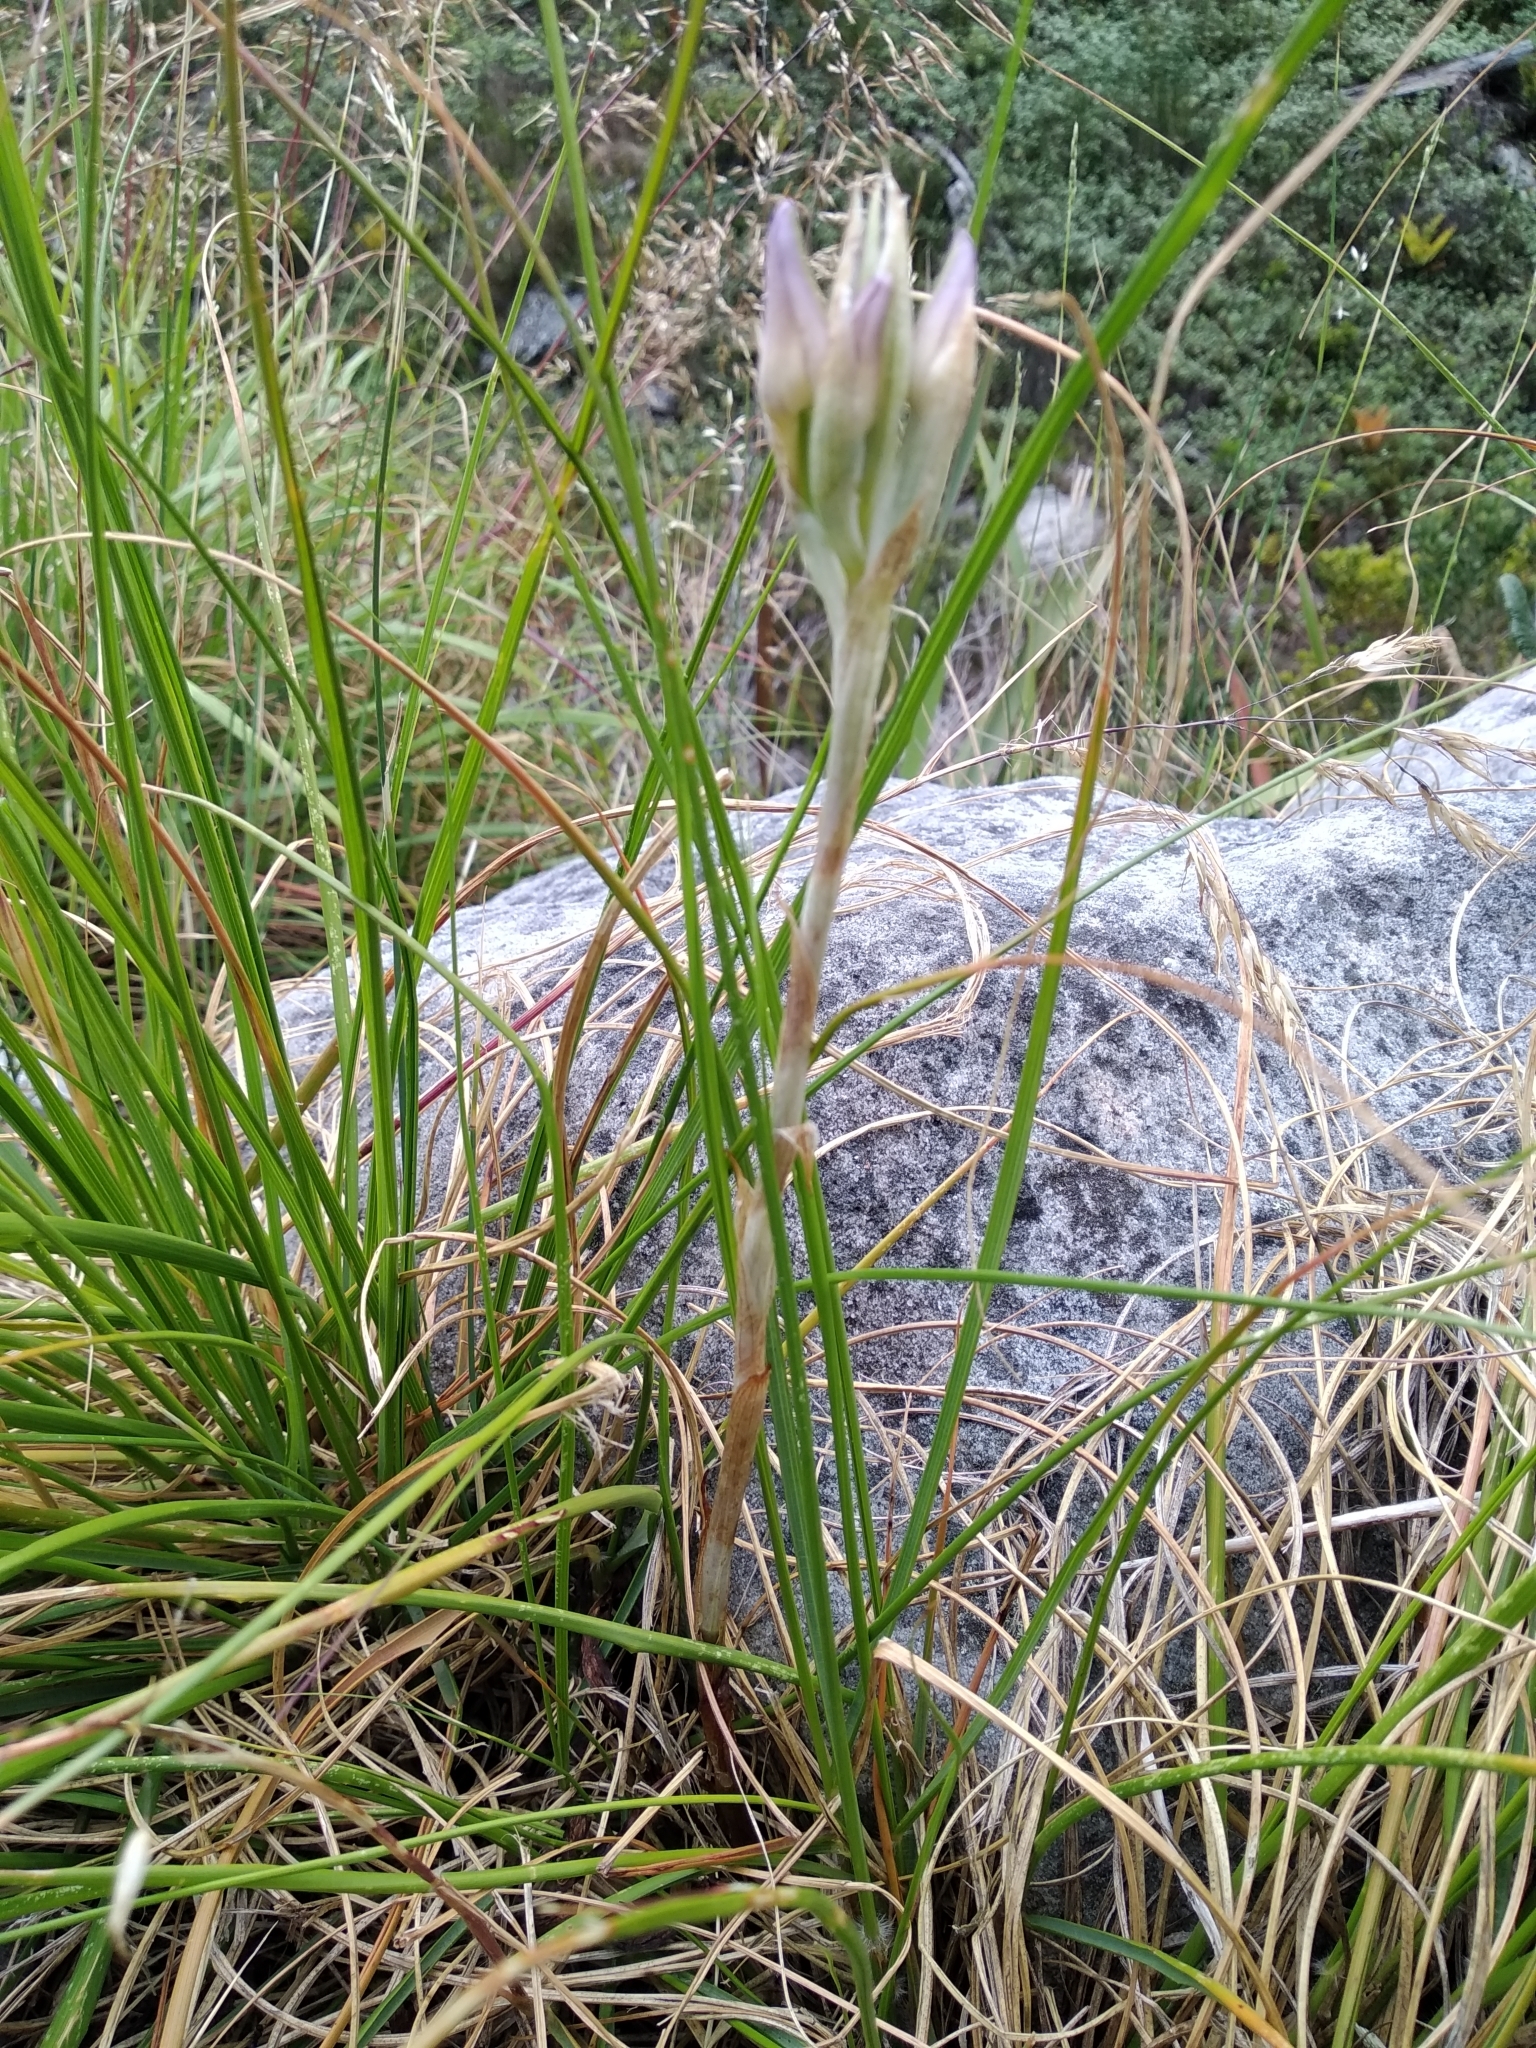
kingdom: Plantae
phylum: Tracheophyta
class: Liliopsida
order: Asparagales
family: Orchidaceae
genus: Disa
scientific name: Disa harveyana
